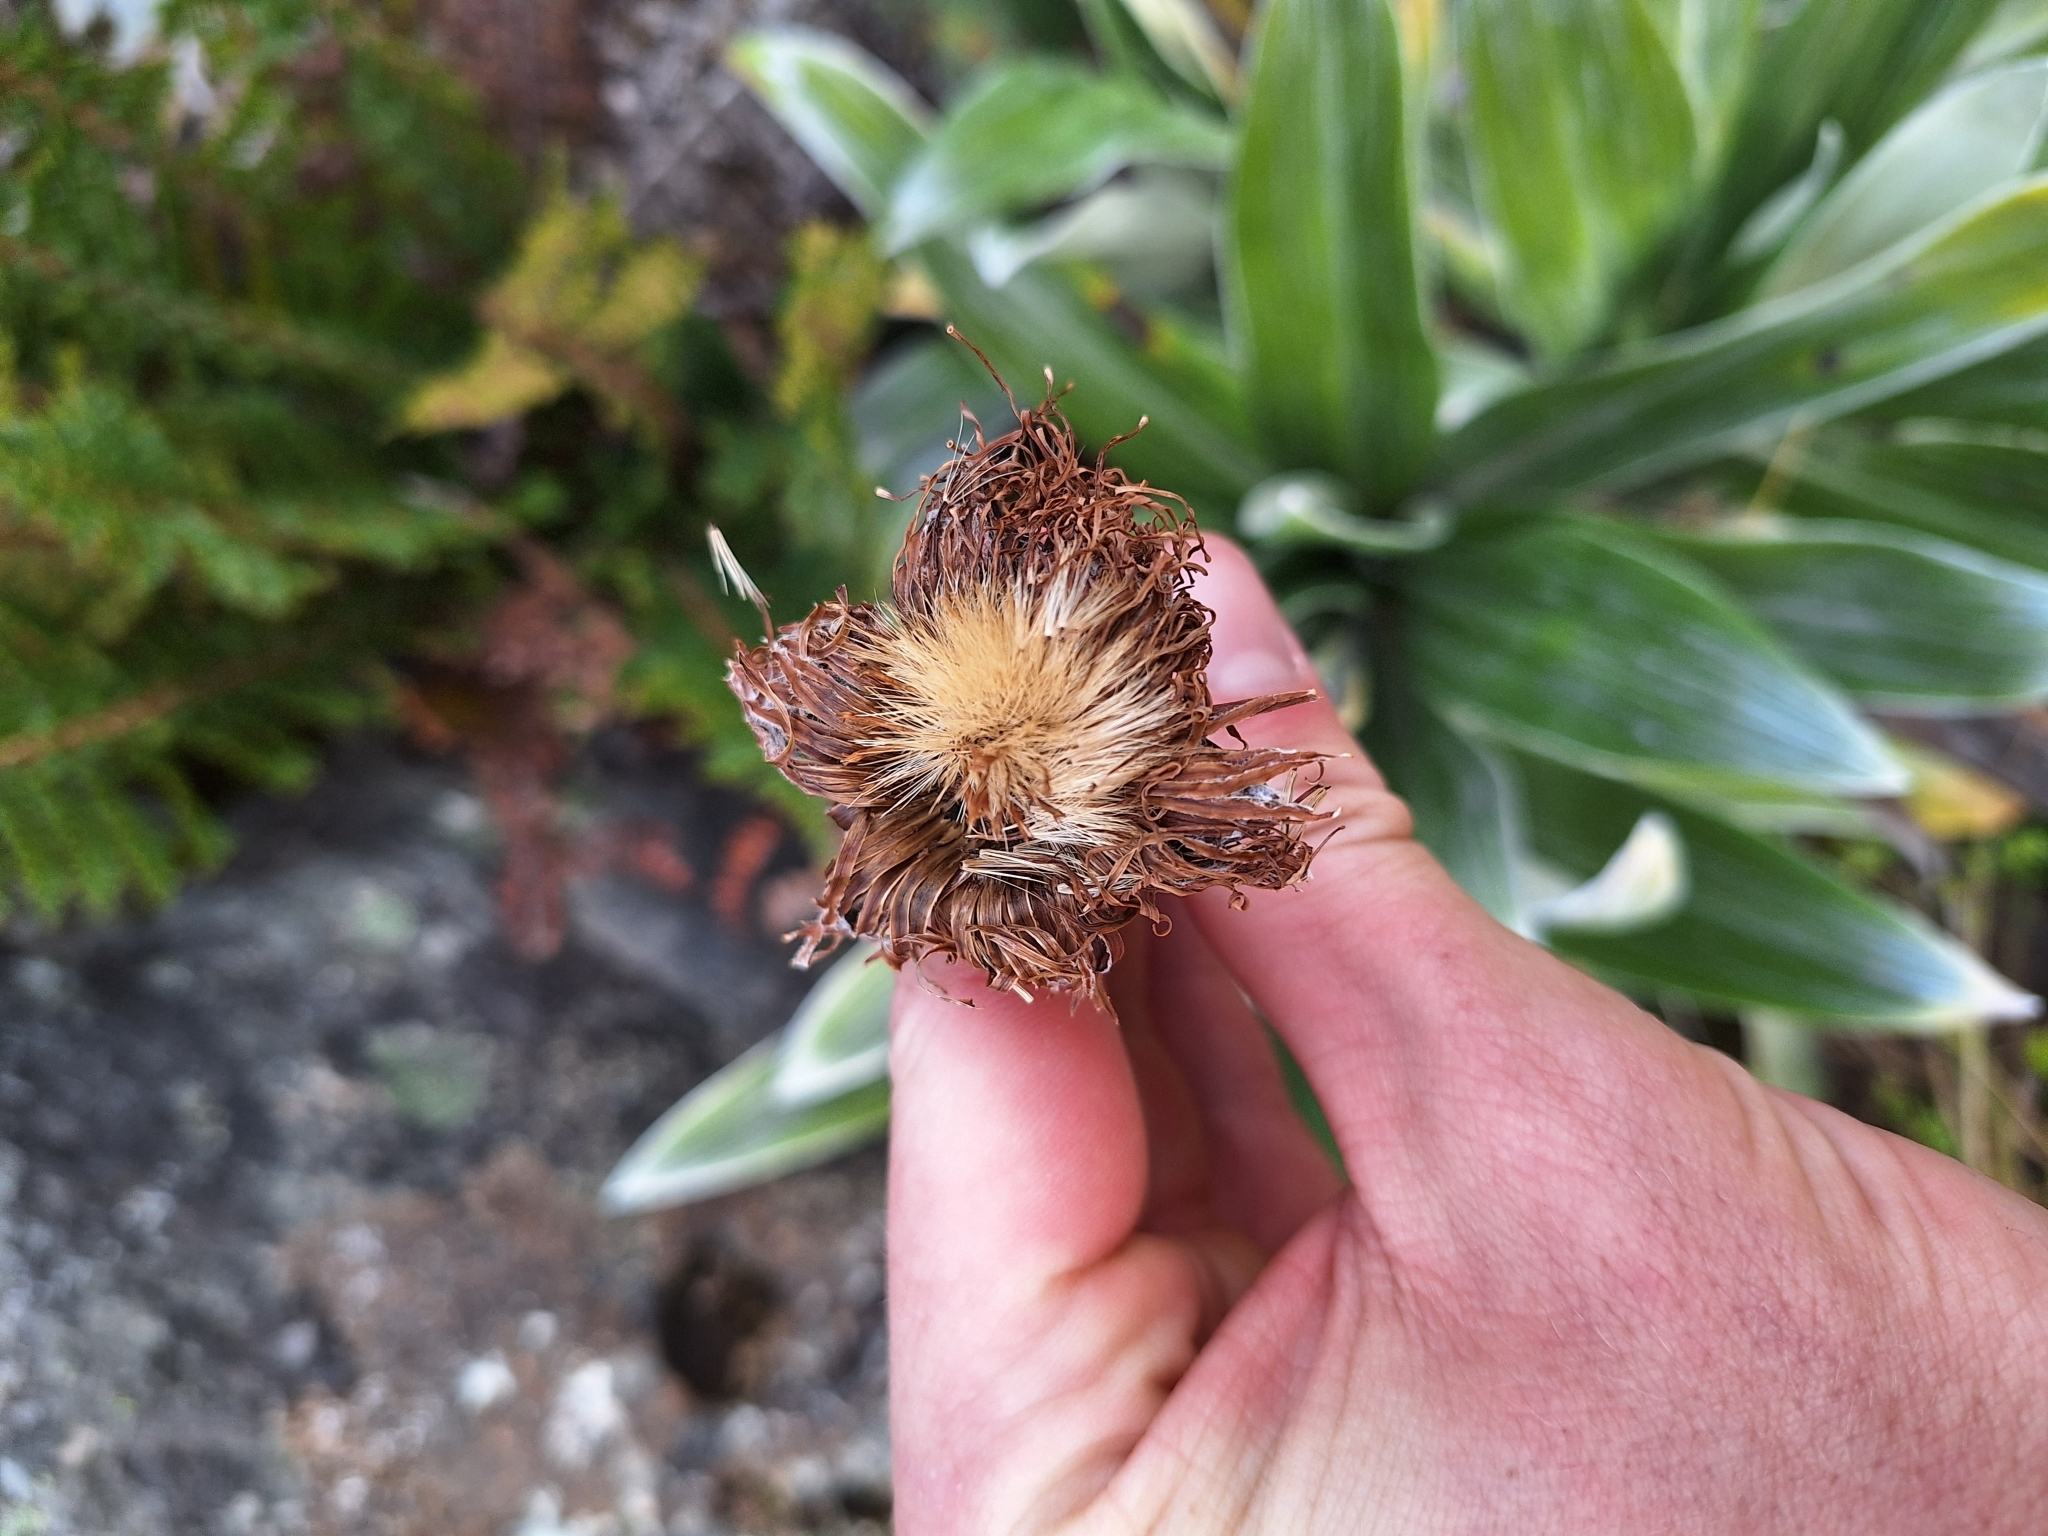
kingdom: Plantae
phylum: Tracheophyta
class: Magnoliopsida
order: Asterales
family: Asteraceae
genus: Celmisia
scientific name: Celmisia semicordata
